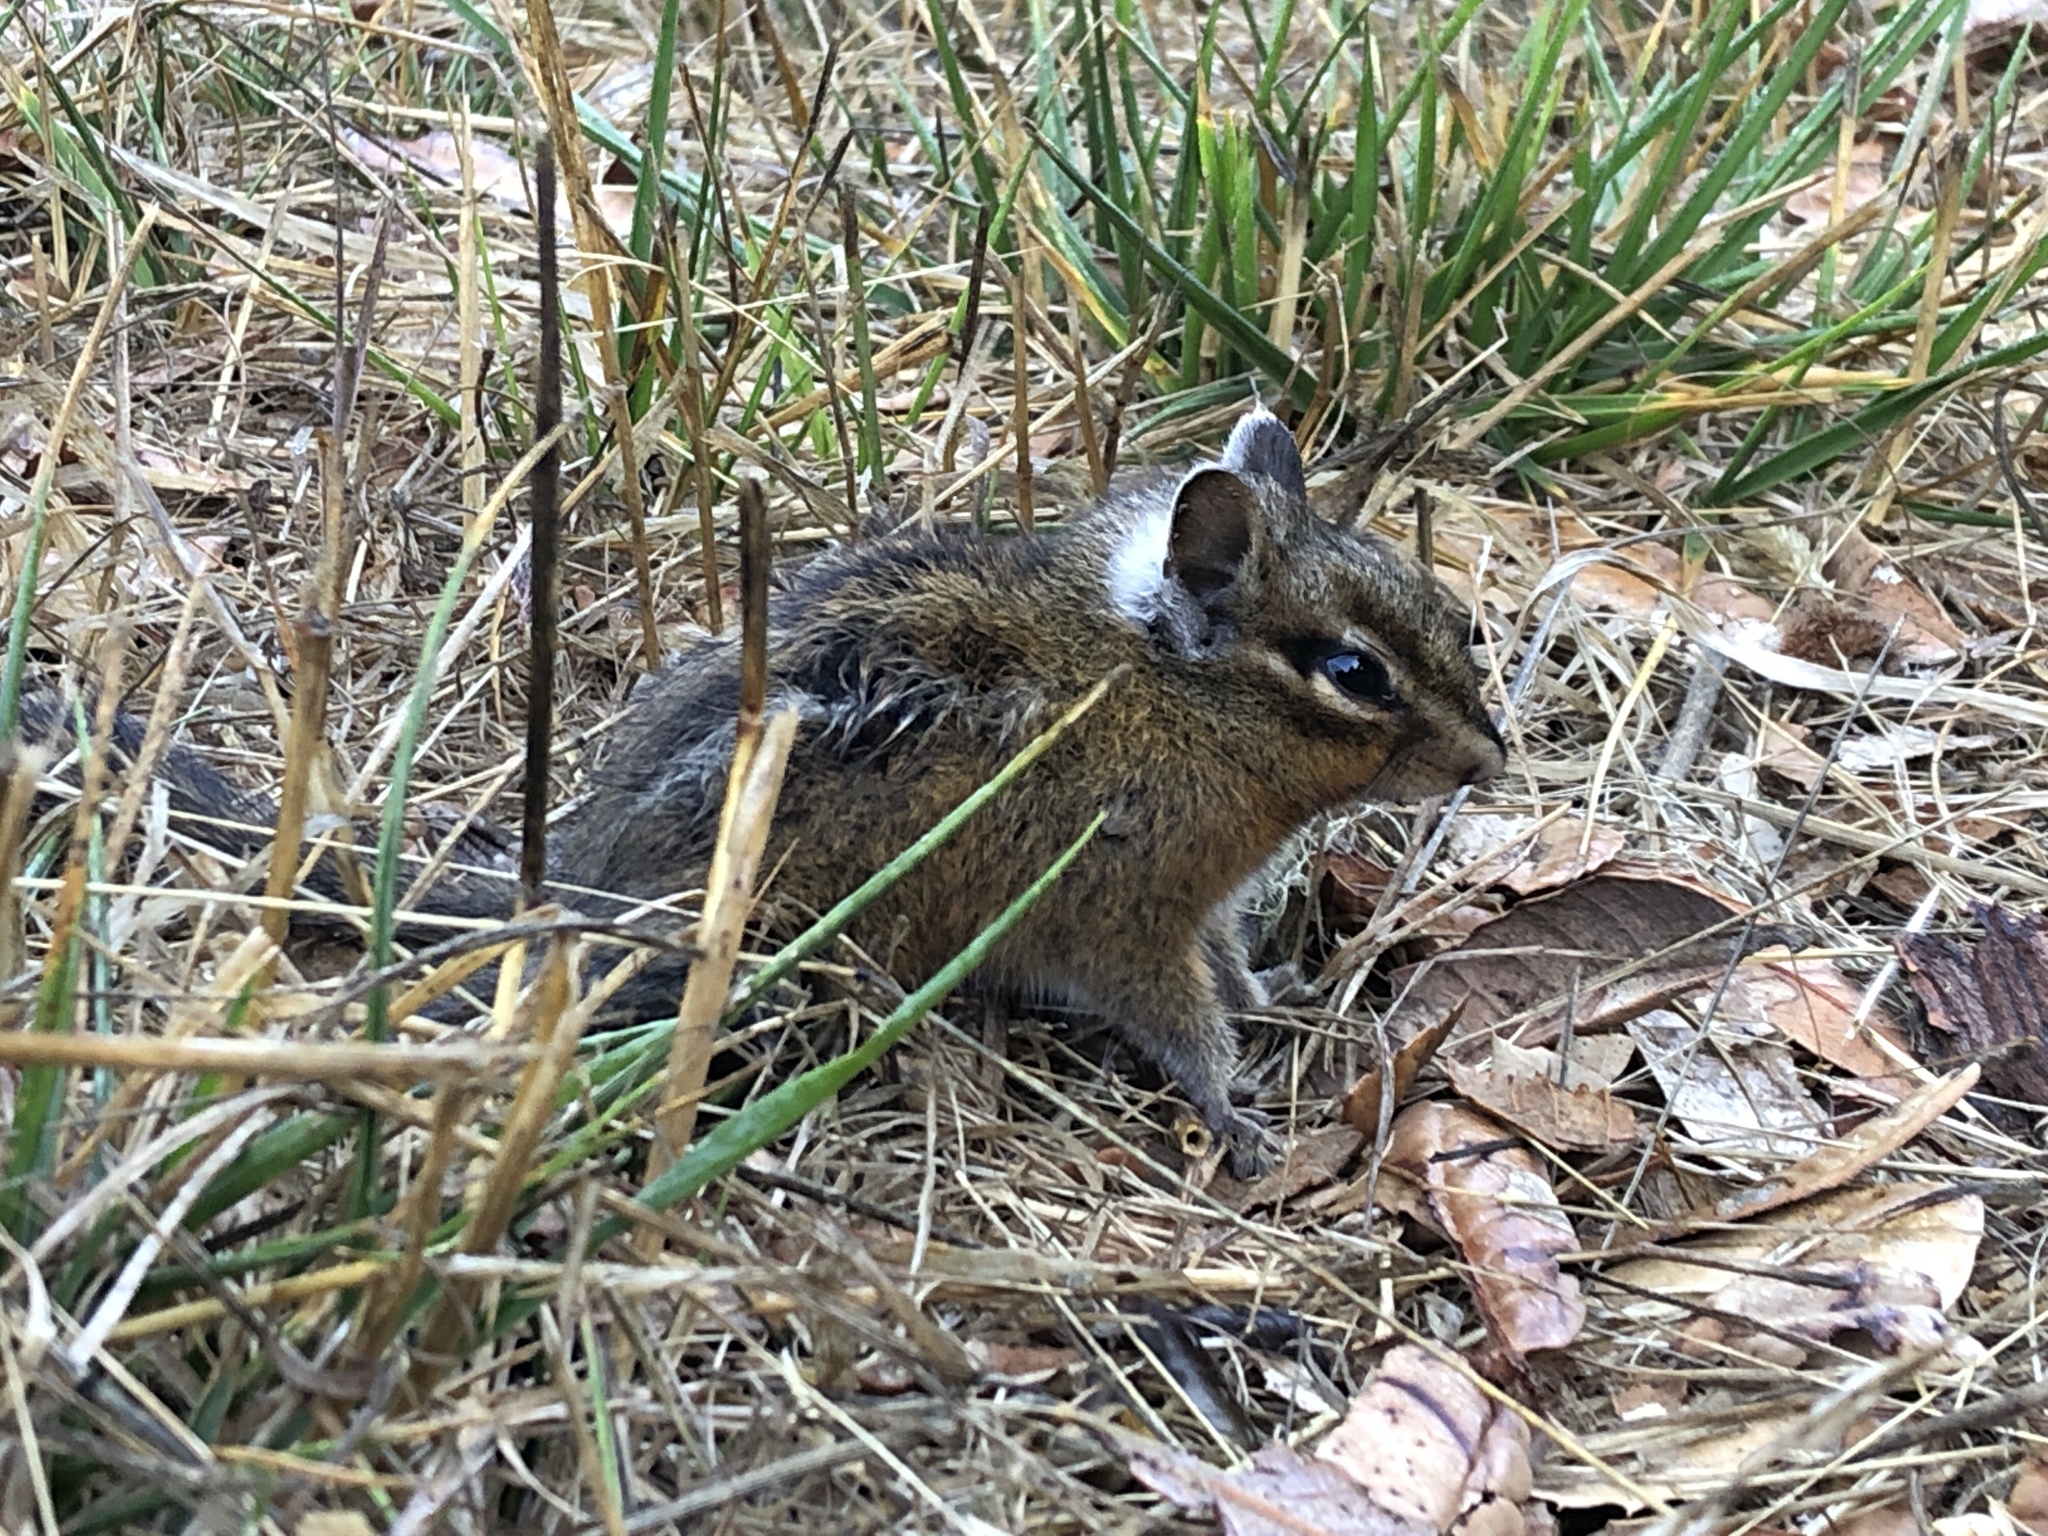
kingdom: Animalia
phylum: Chordata
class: Mammalia
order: Rodentia
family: Sciuridae
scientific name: Sciuridae
